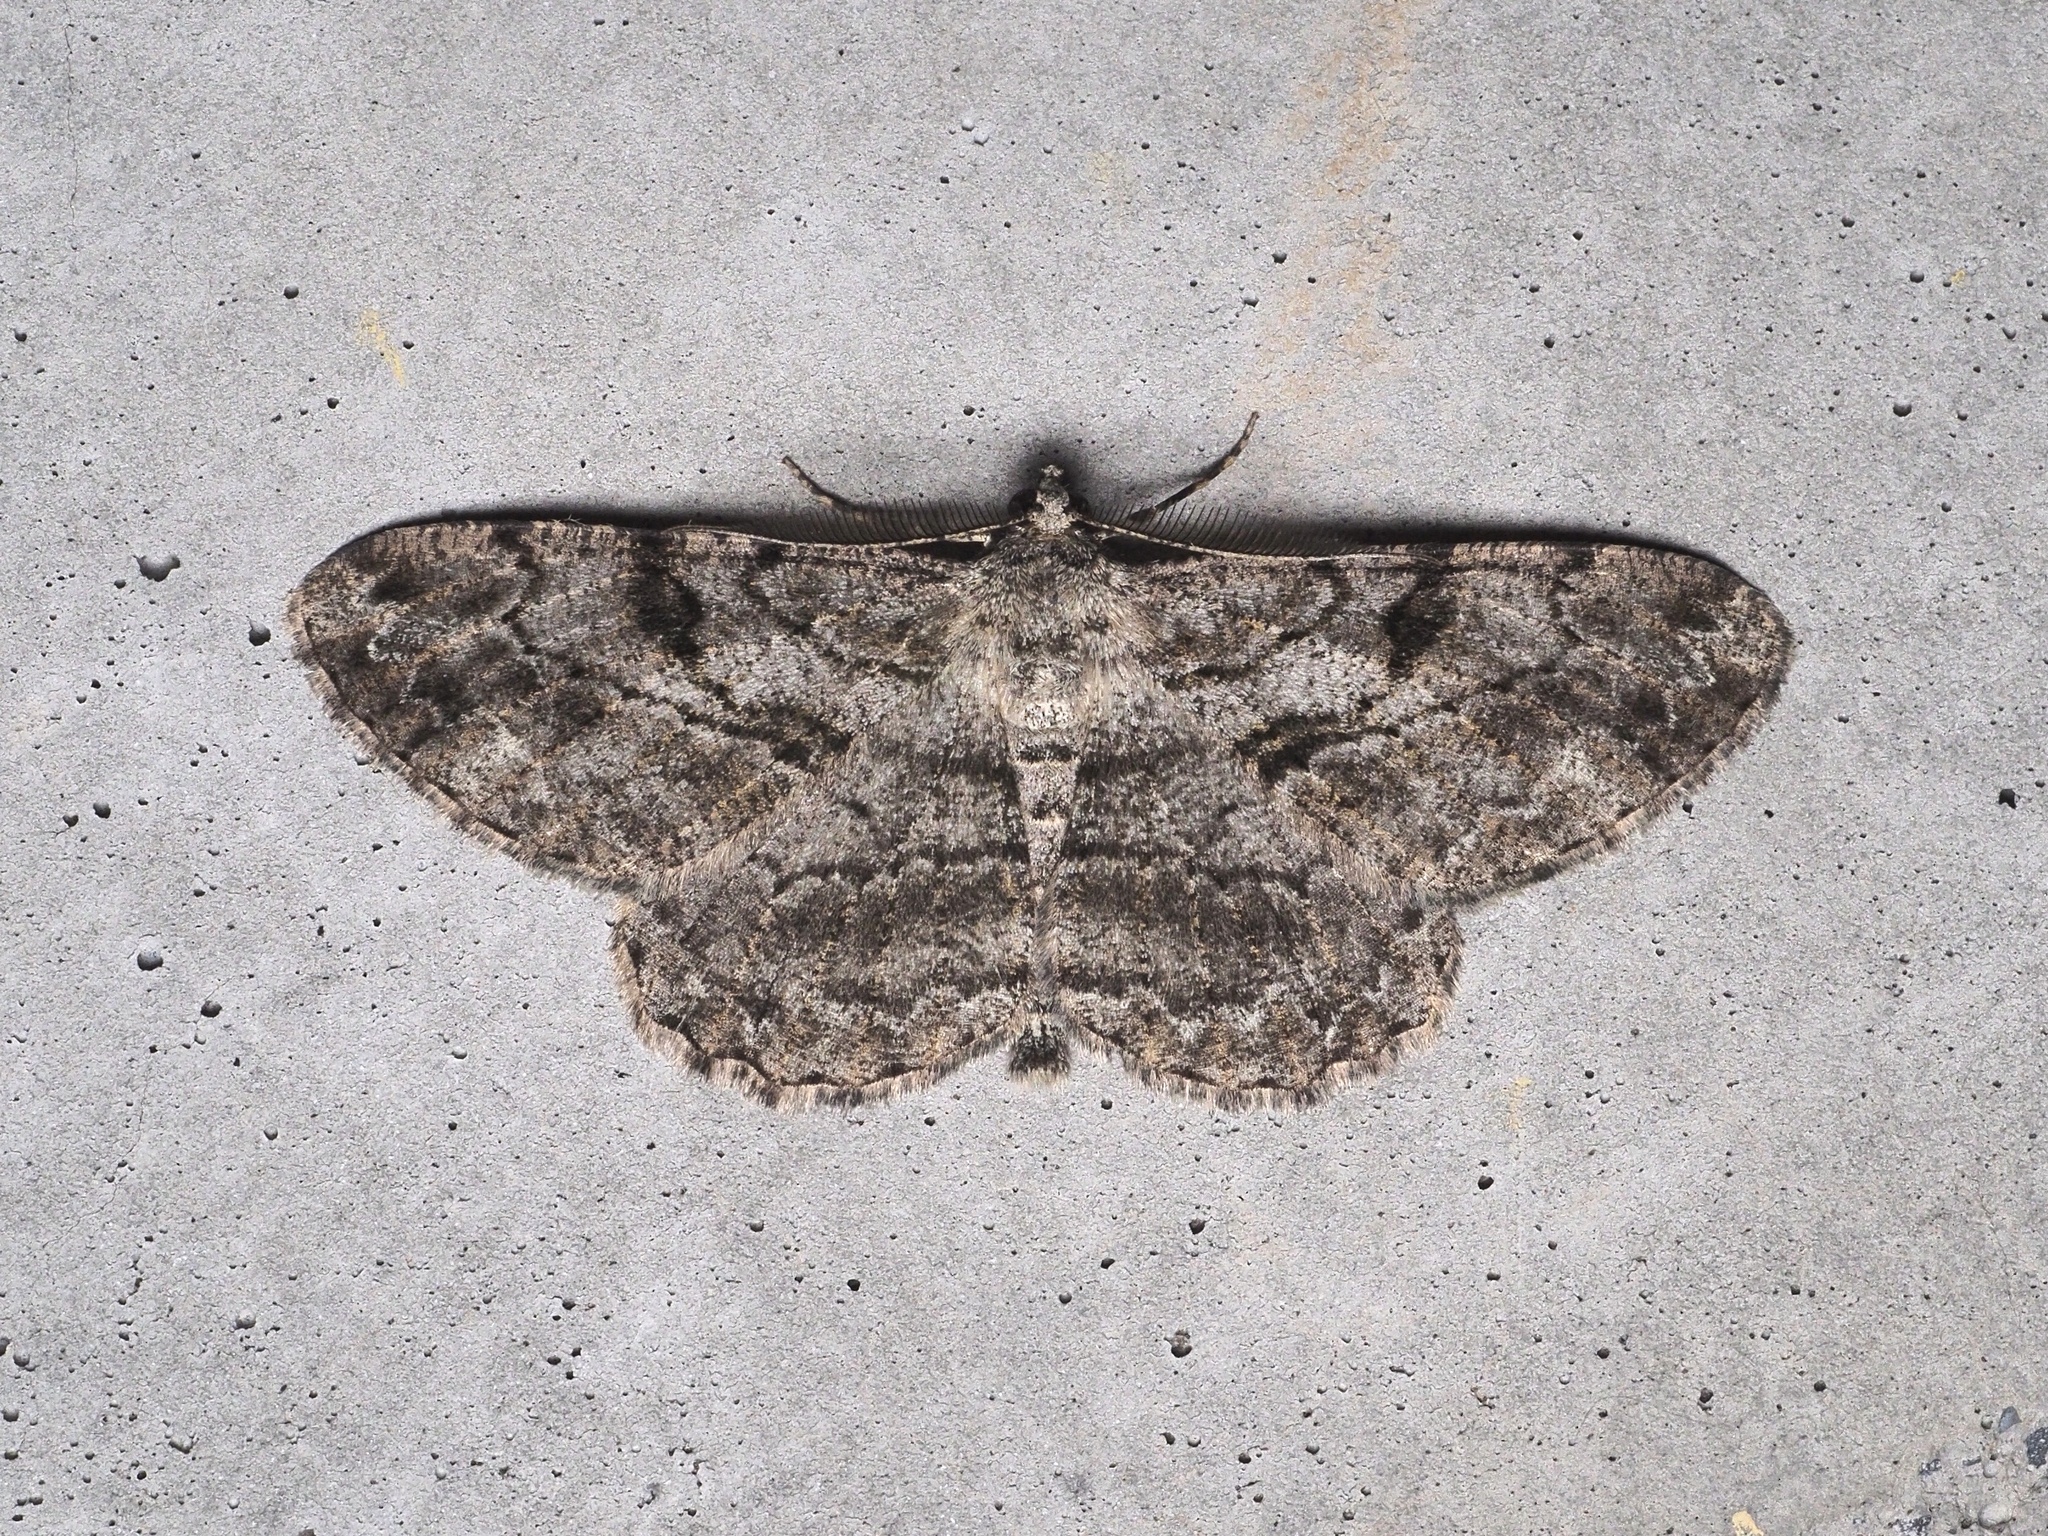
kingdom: Animalia
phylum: Arthropoda
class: Insecta
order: Lepidoptera
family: Geometridae
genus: Peribatodes
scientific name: Peribatodes rhomboidaria
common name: Willow beauty
